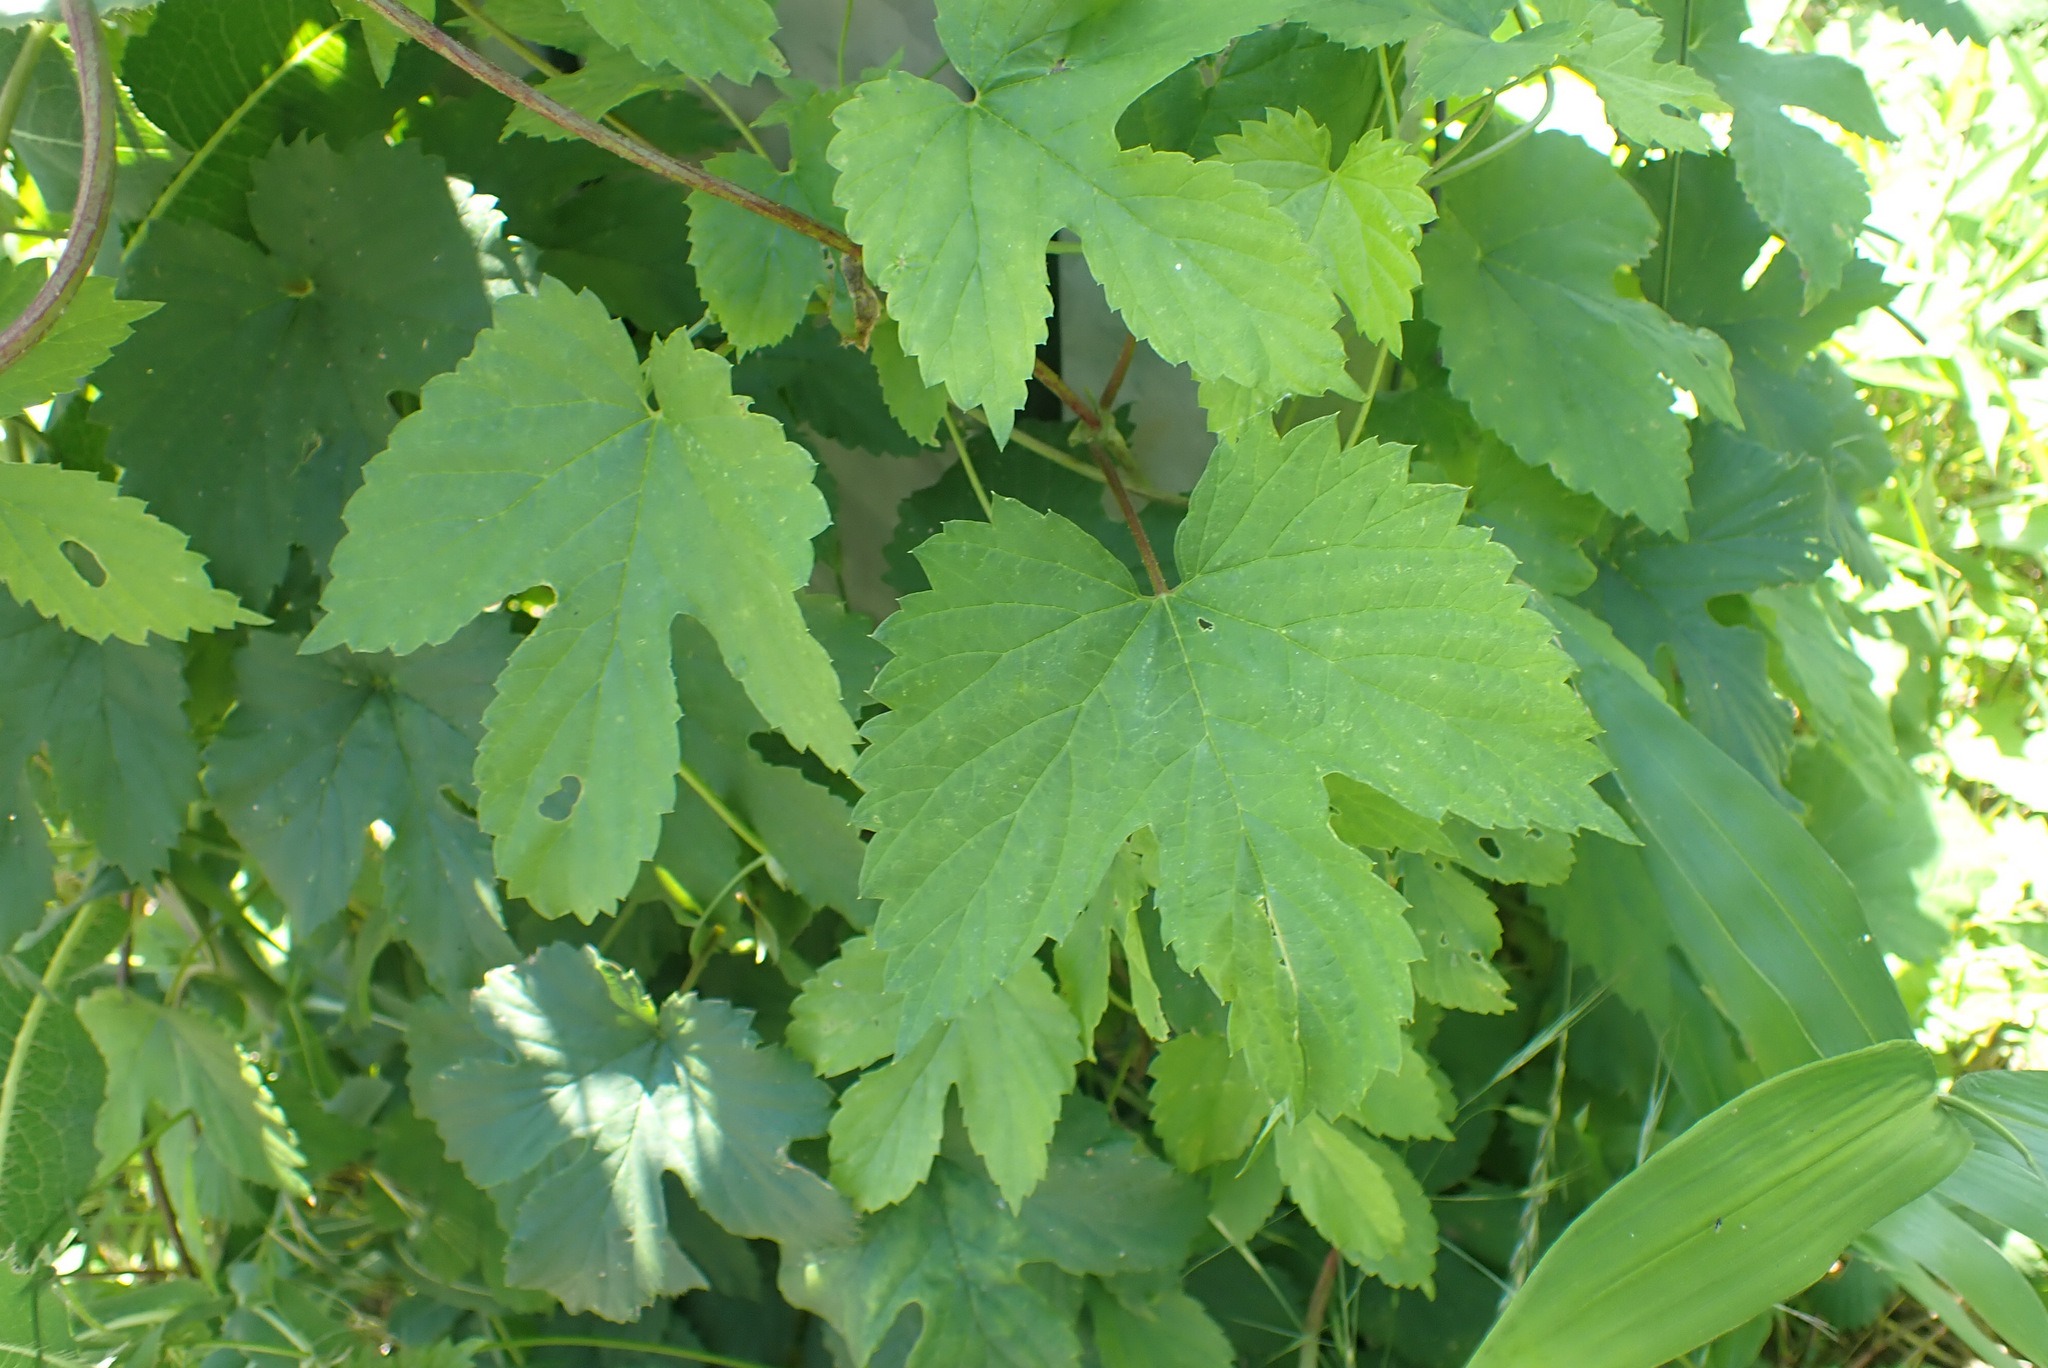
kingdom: Plantae
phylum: Tracheophyta
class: Magnoliopsida
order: Rosales
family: Cannabaceae
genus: Humulus
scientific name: Humulus lupulus
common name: Hop
